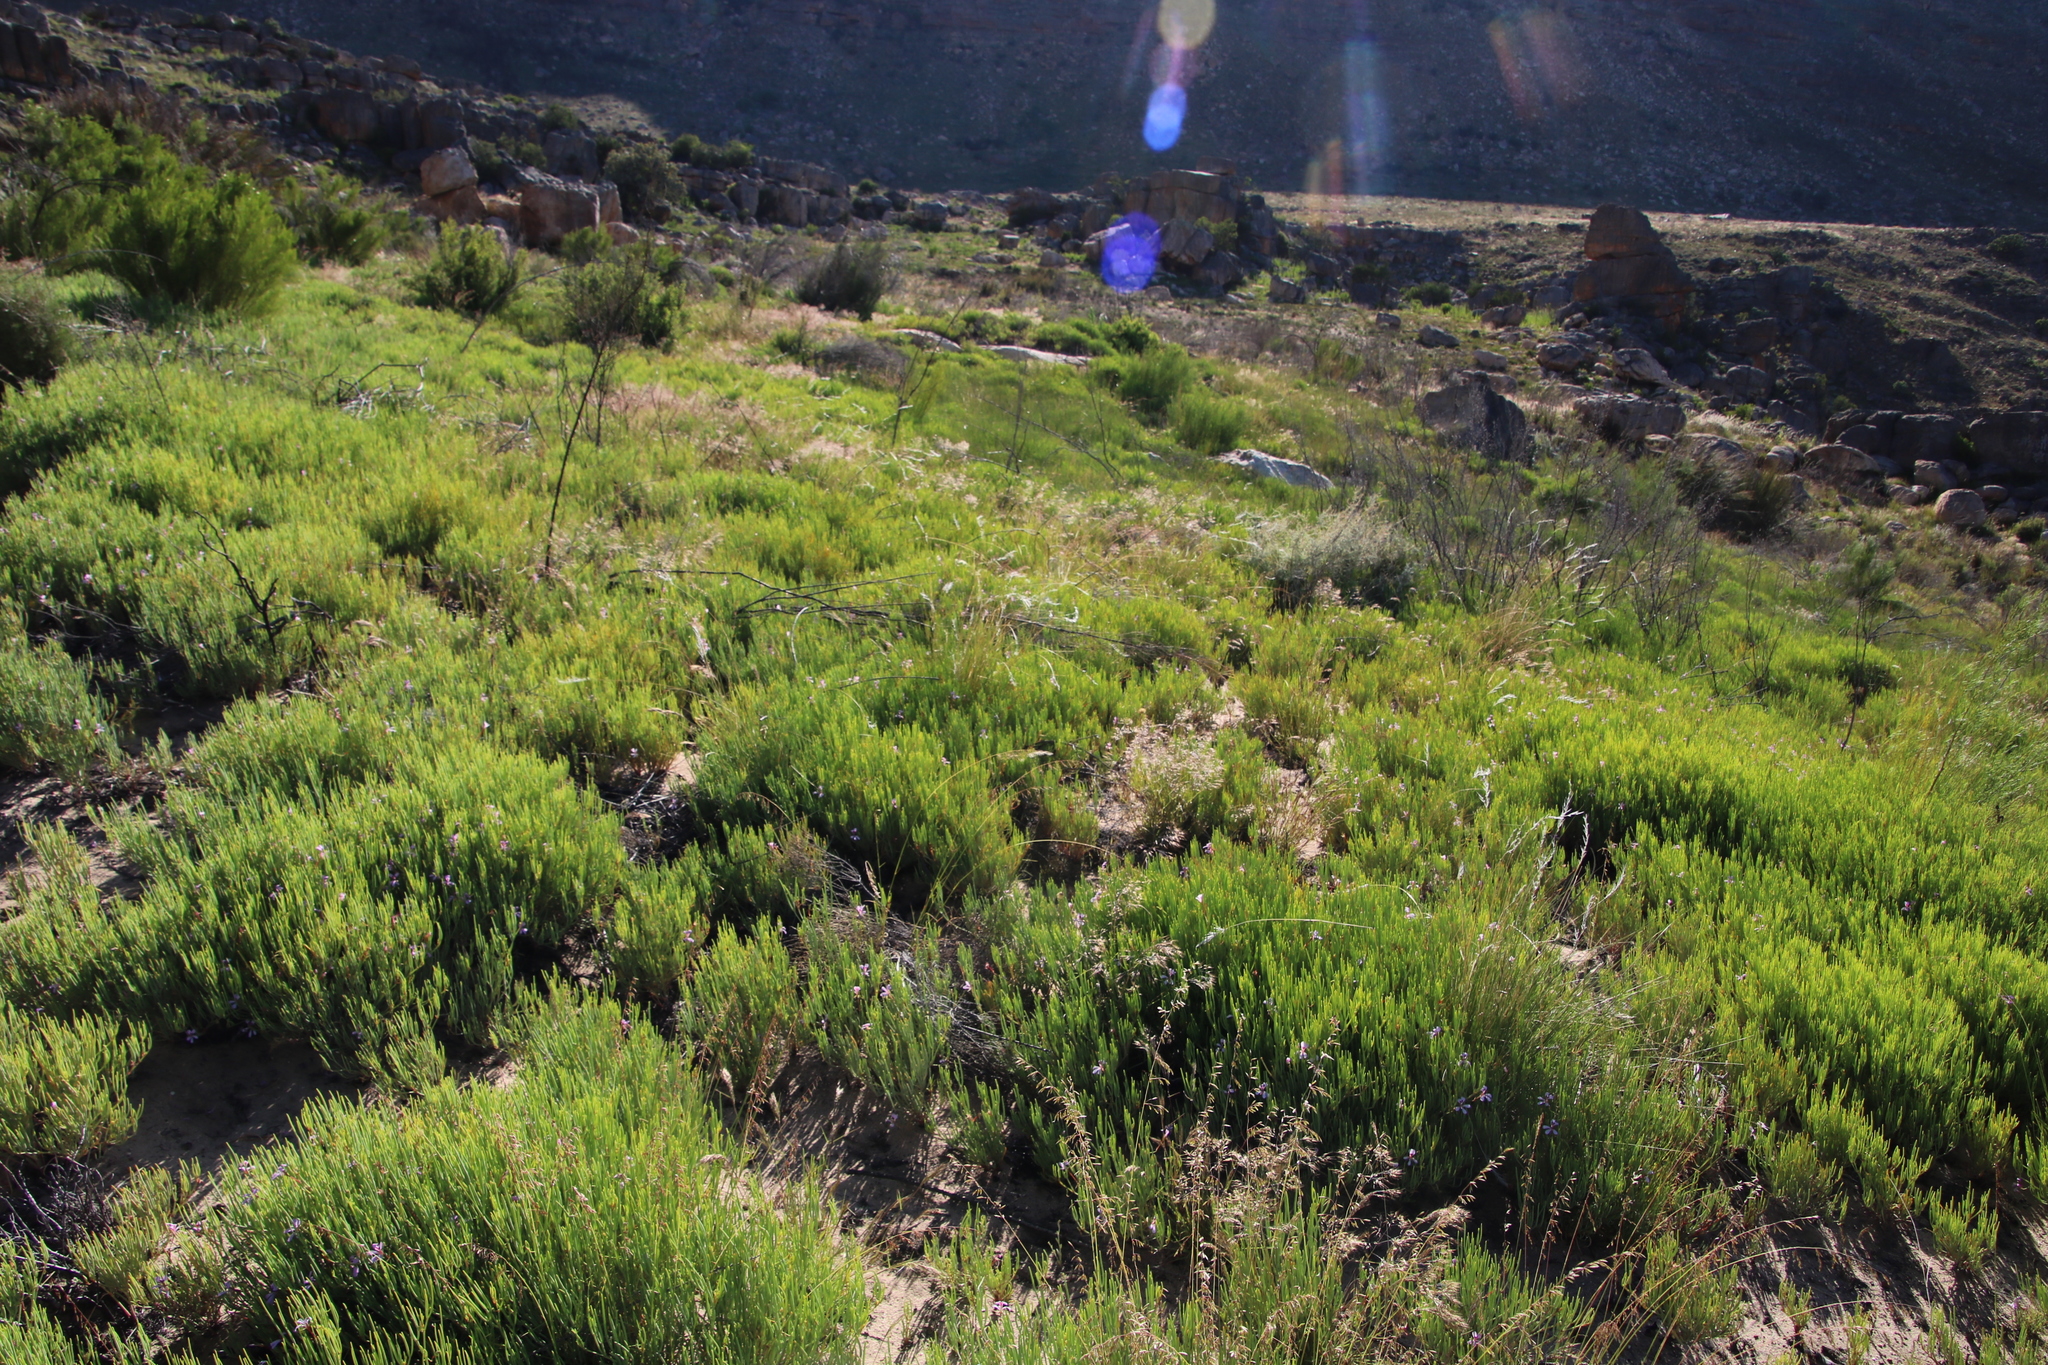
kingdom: Plantae
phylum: Tracheophyta
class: Magnoliopsida
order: Geraniales
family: Geraniaceae
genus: Pelargonium
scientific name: Pelargonium laevigatum
